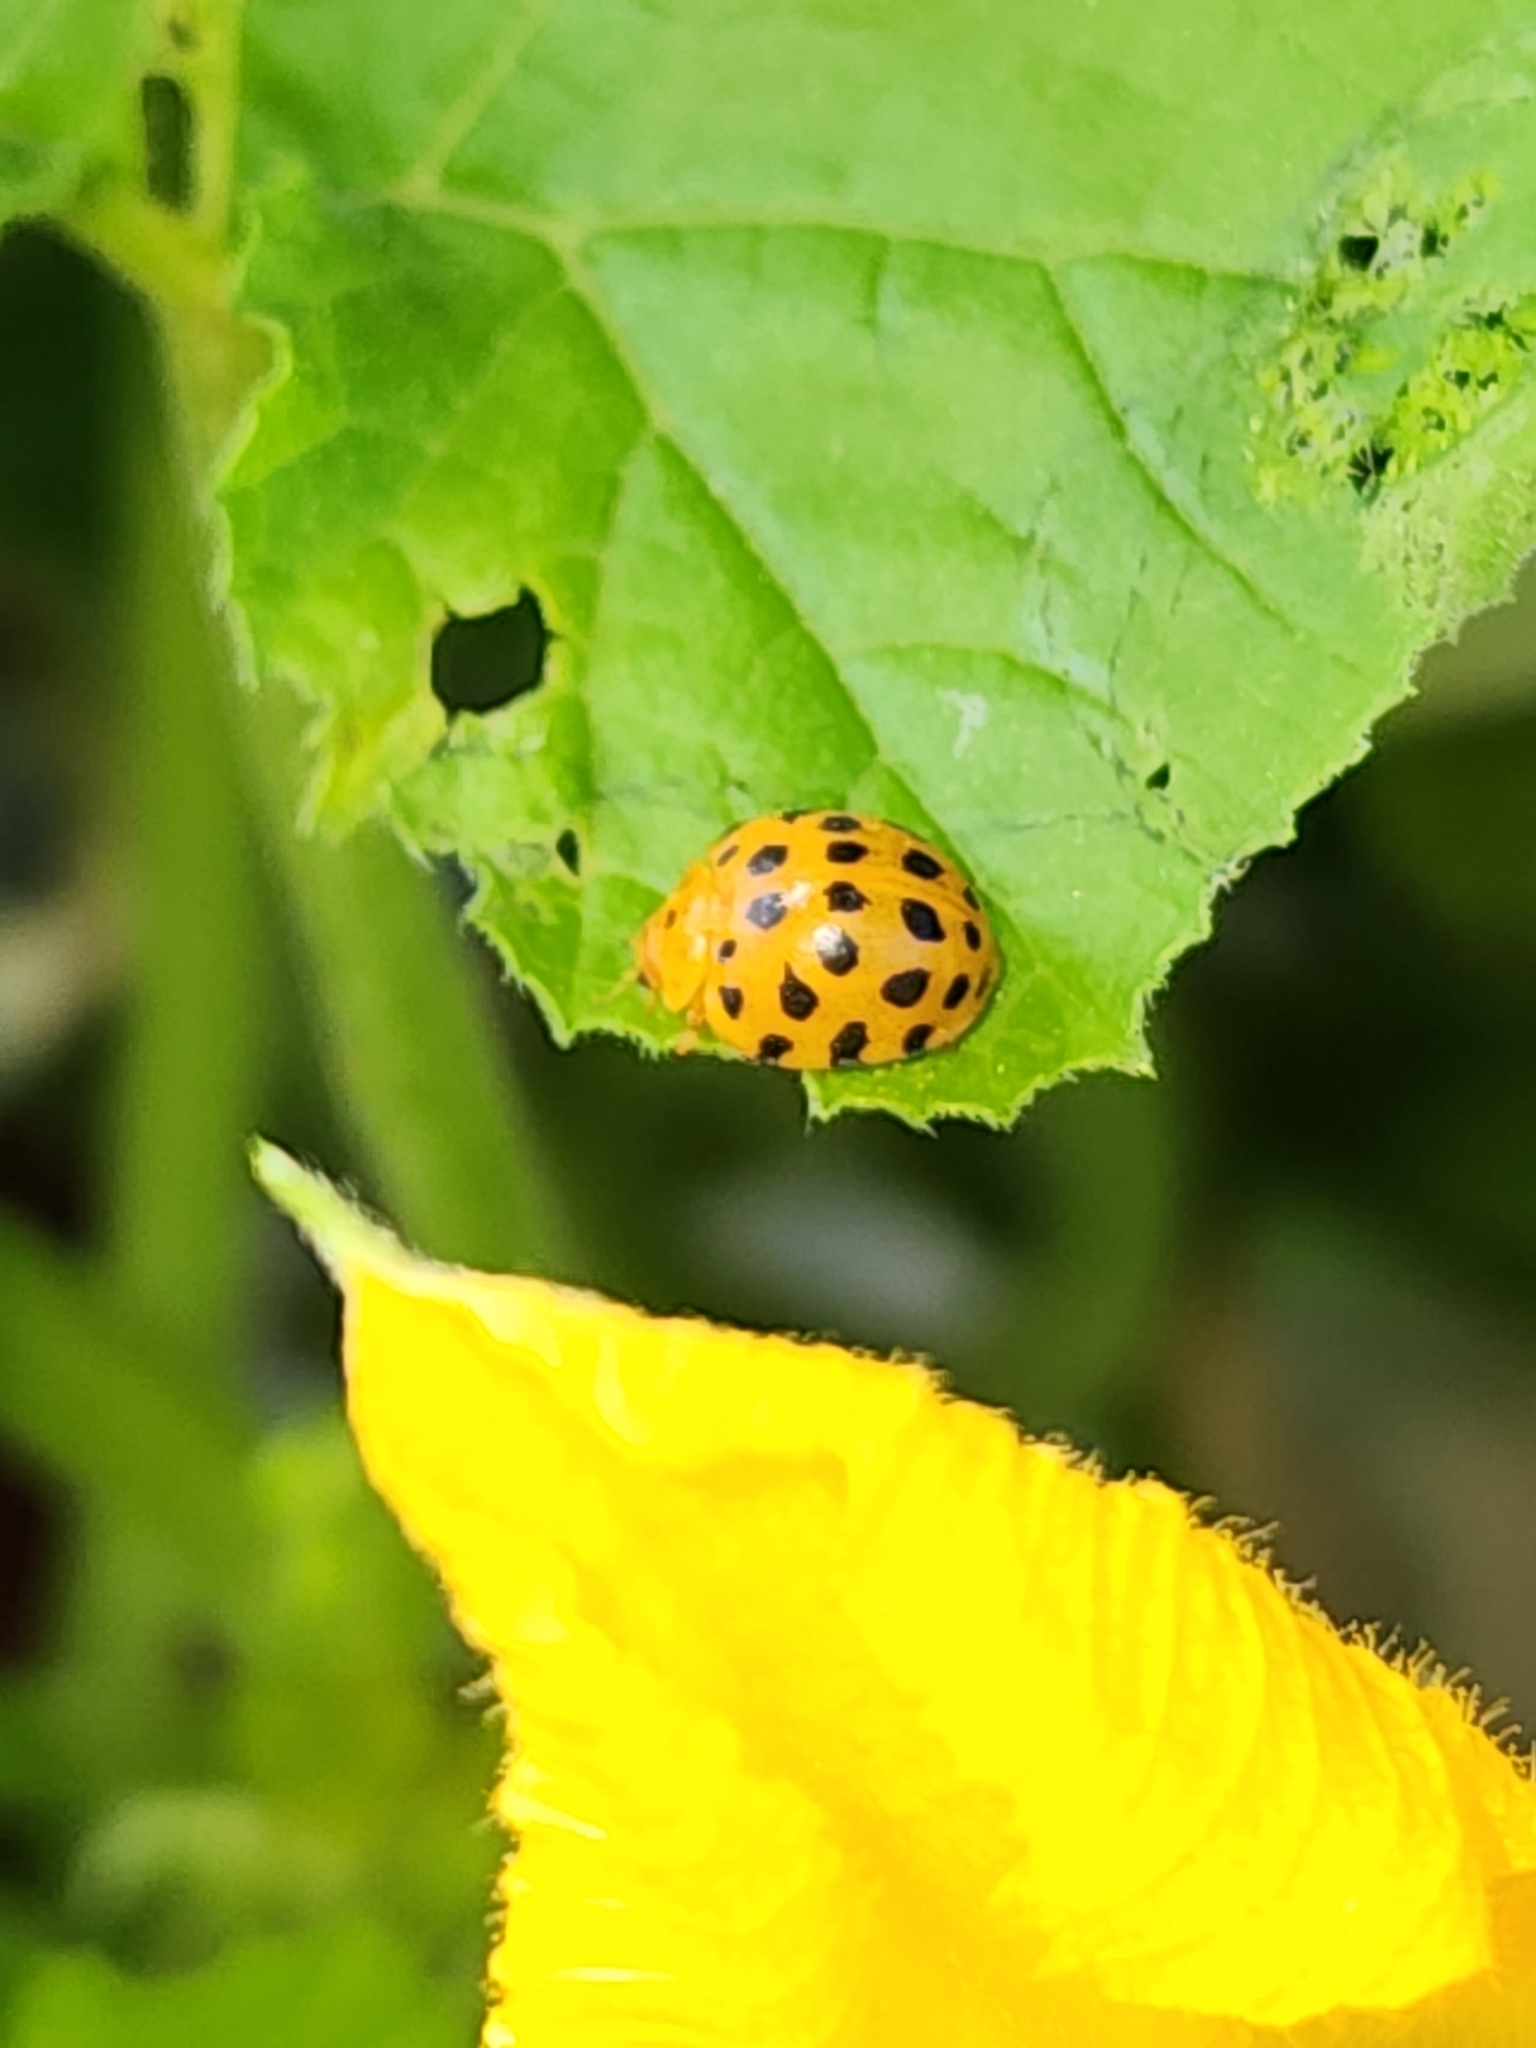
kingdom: Animalia
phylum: Arthropoda
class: Insecta
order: Coleoptera
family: Coccinellidae
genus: Henosepilachna
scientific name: Henosepilachna vigintioctopunctata
